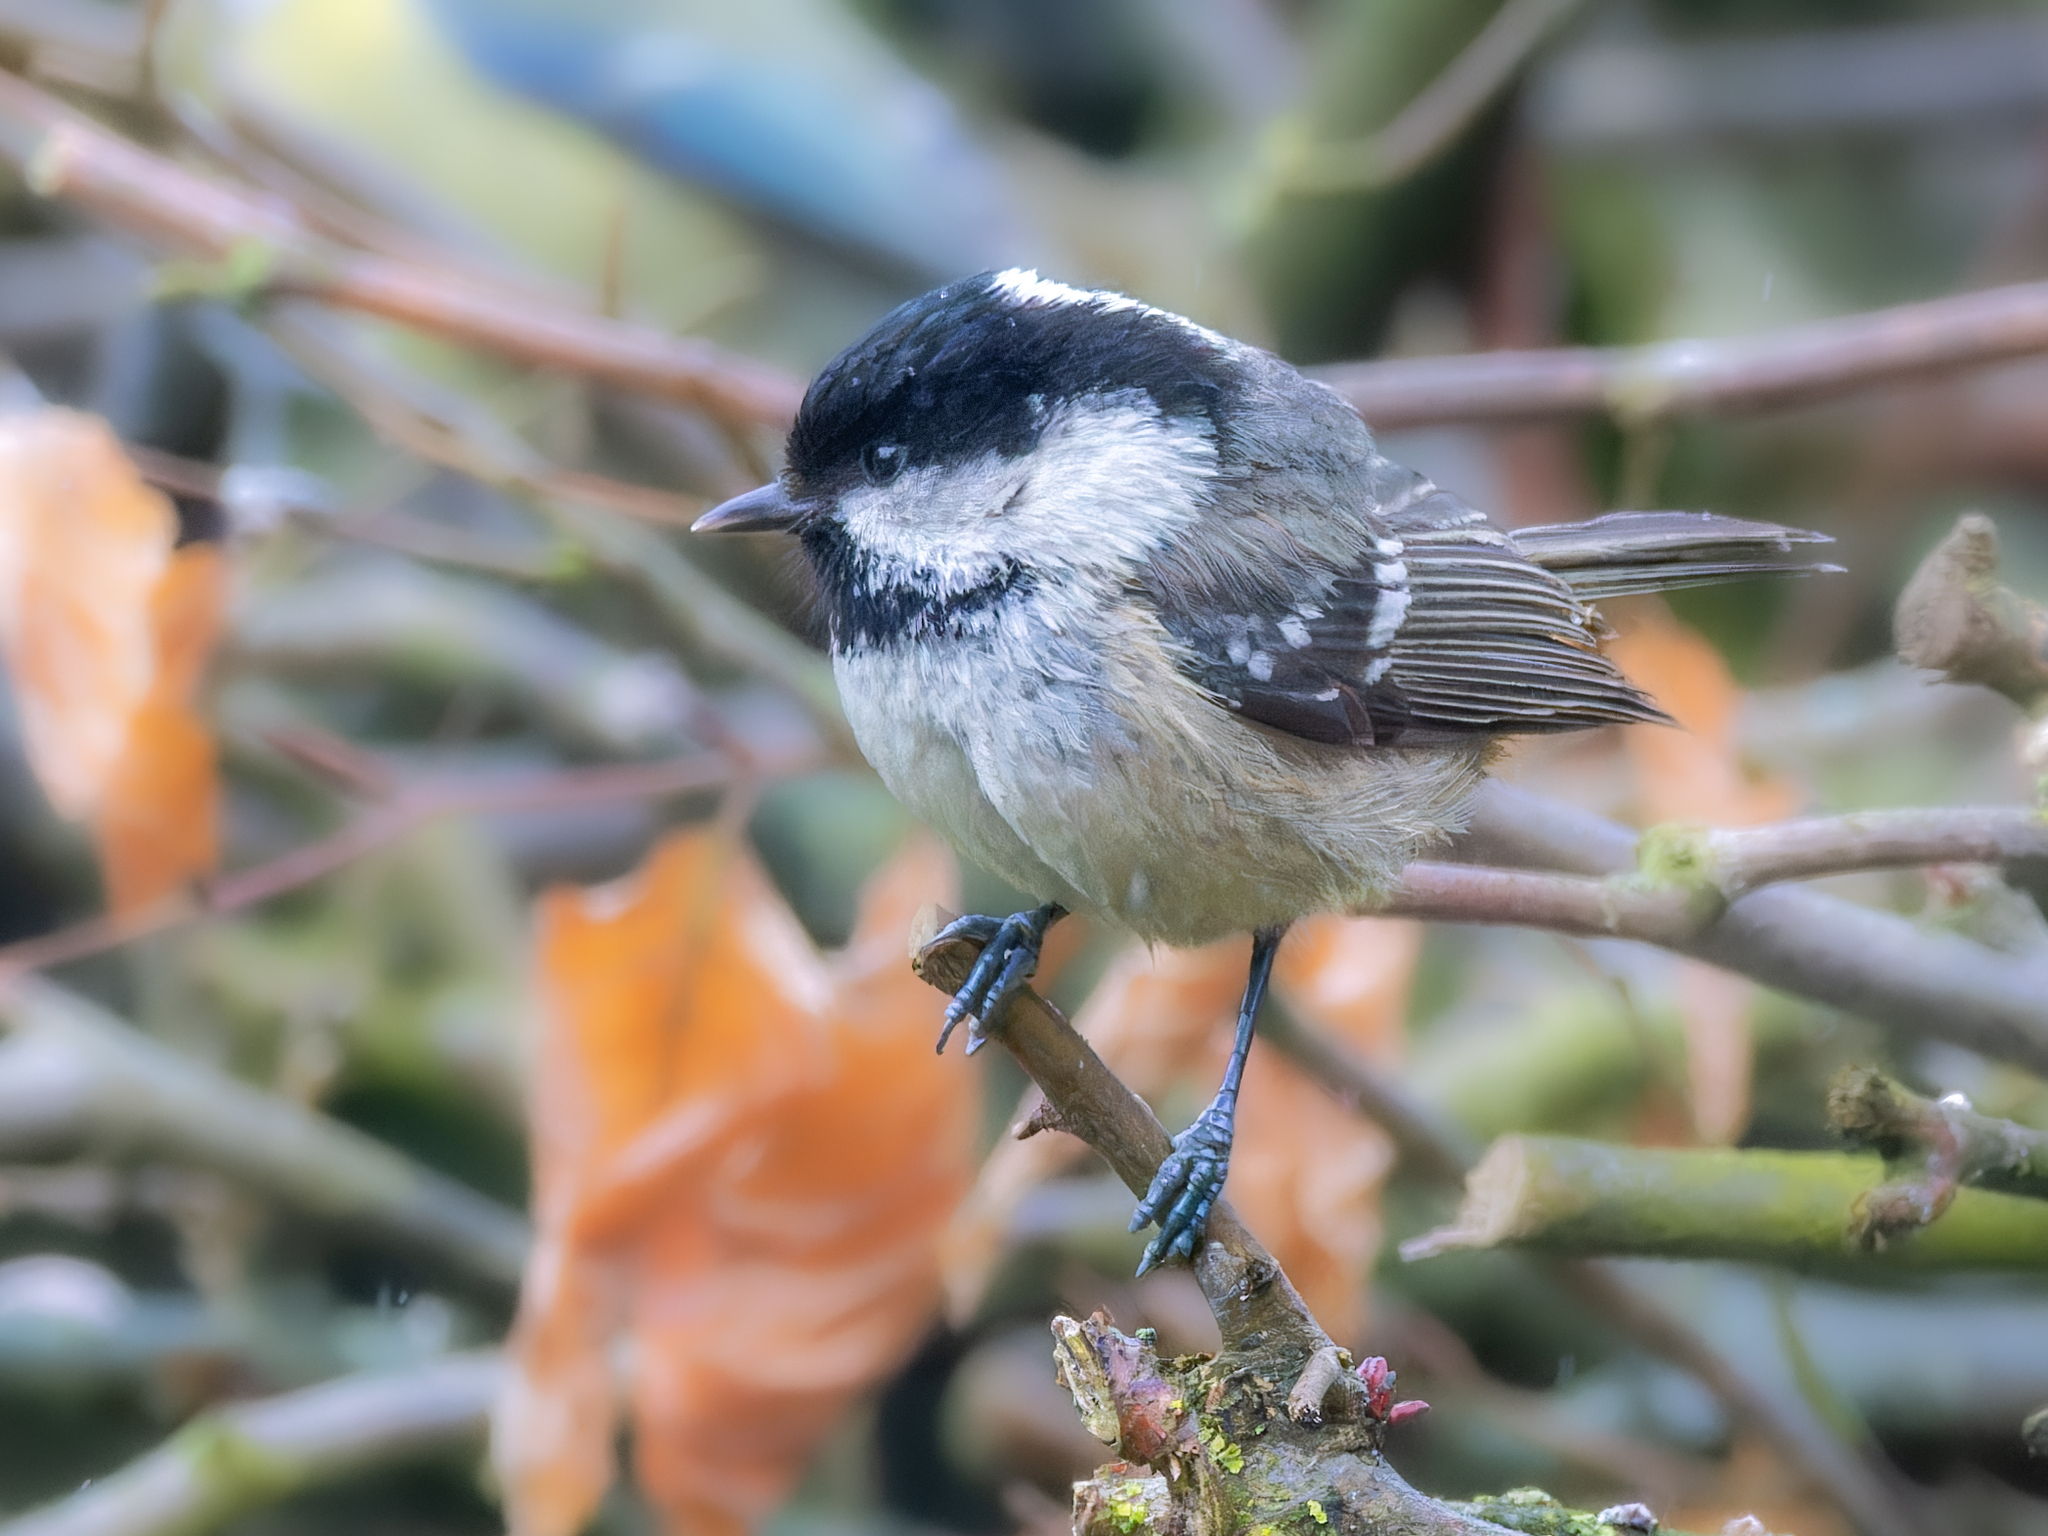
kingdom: Animalia
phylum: Chordata
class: Aves
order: Passeriformes
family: Paridae
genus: Periparus
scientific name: Periparus ater
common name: Coal tit
